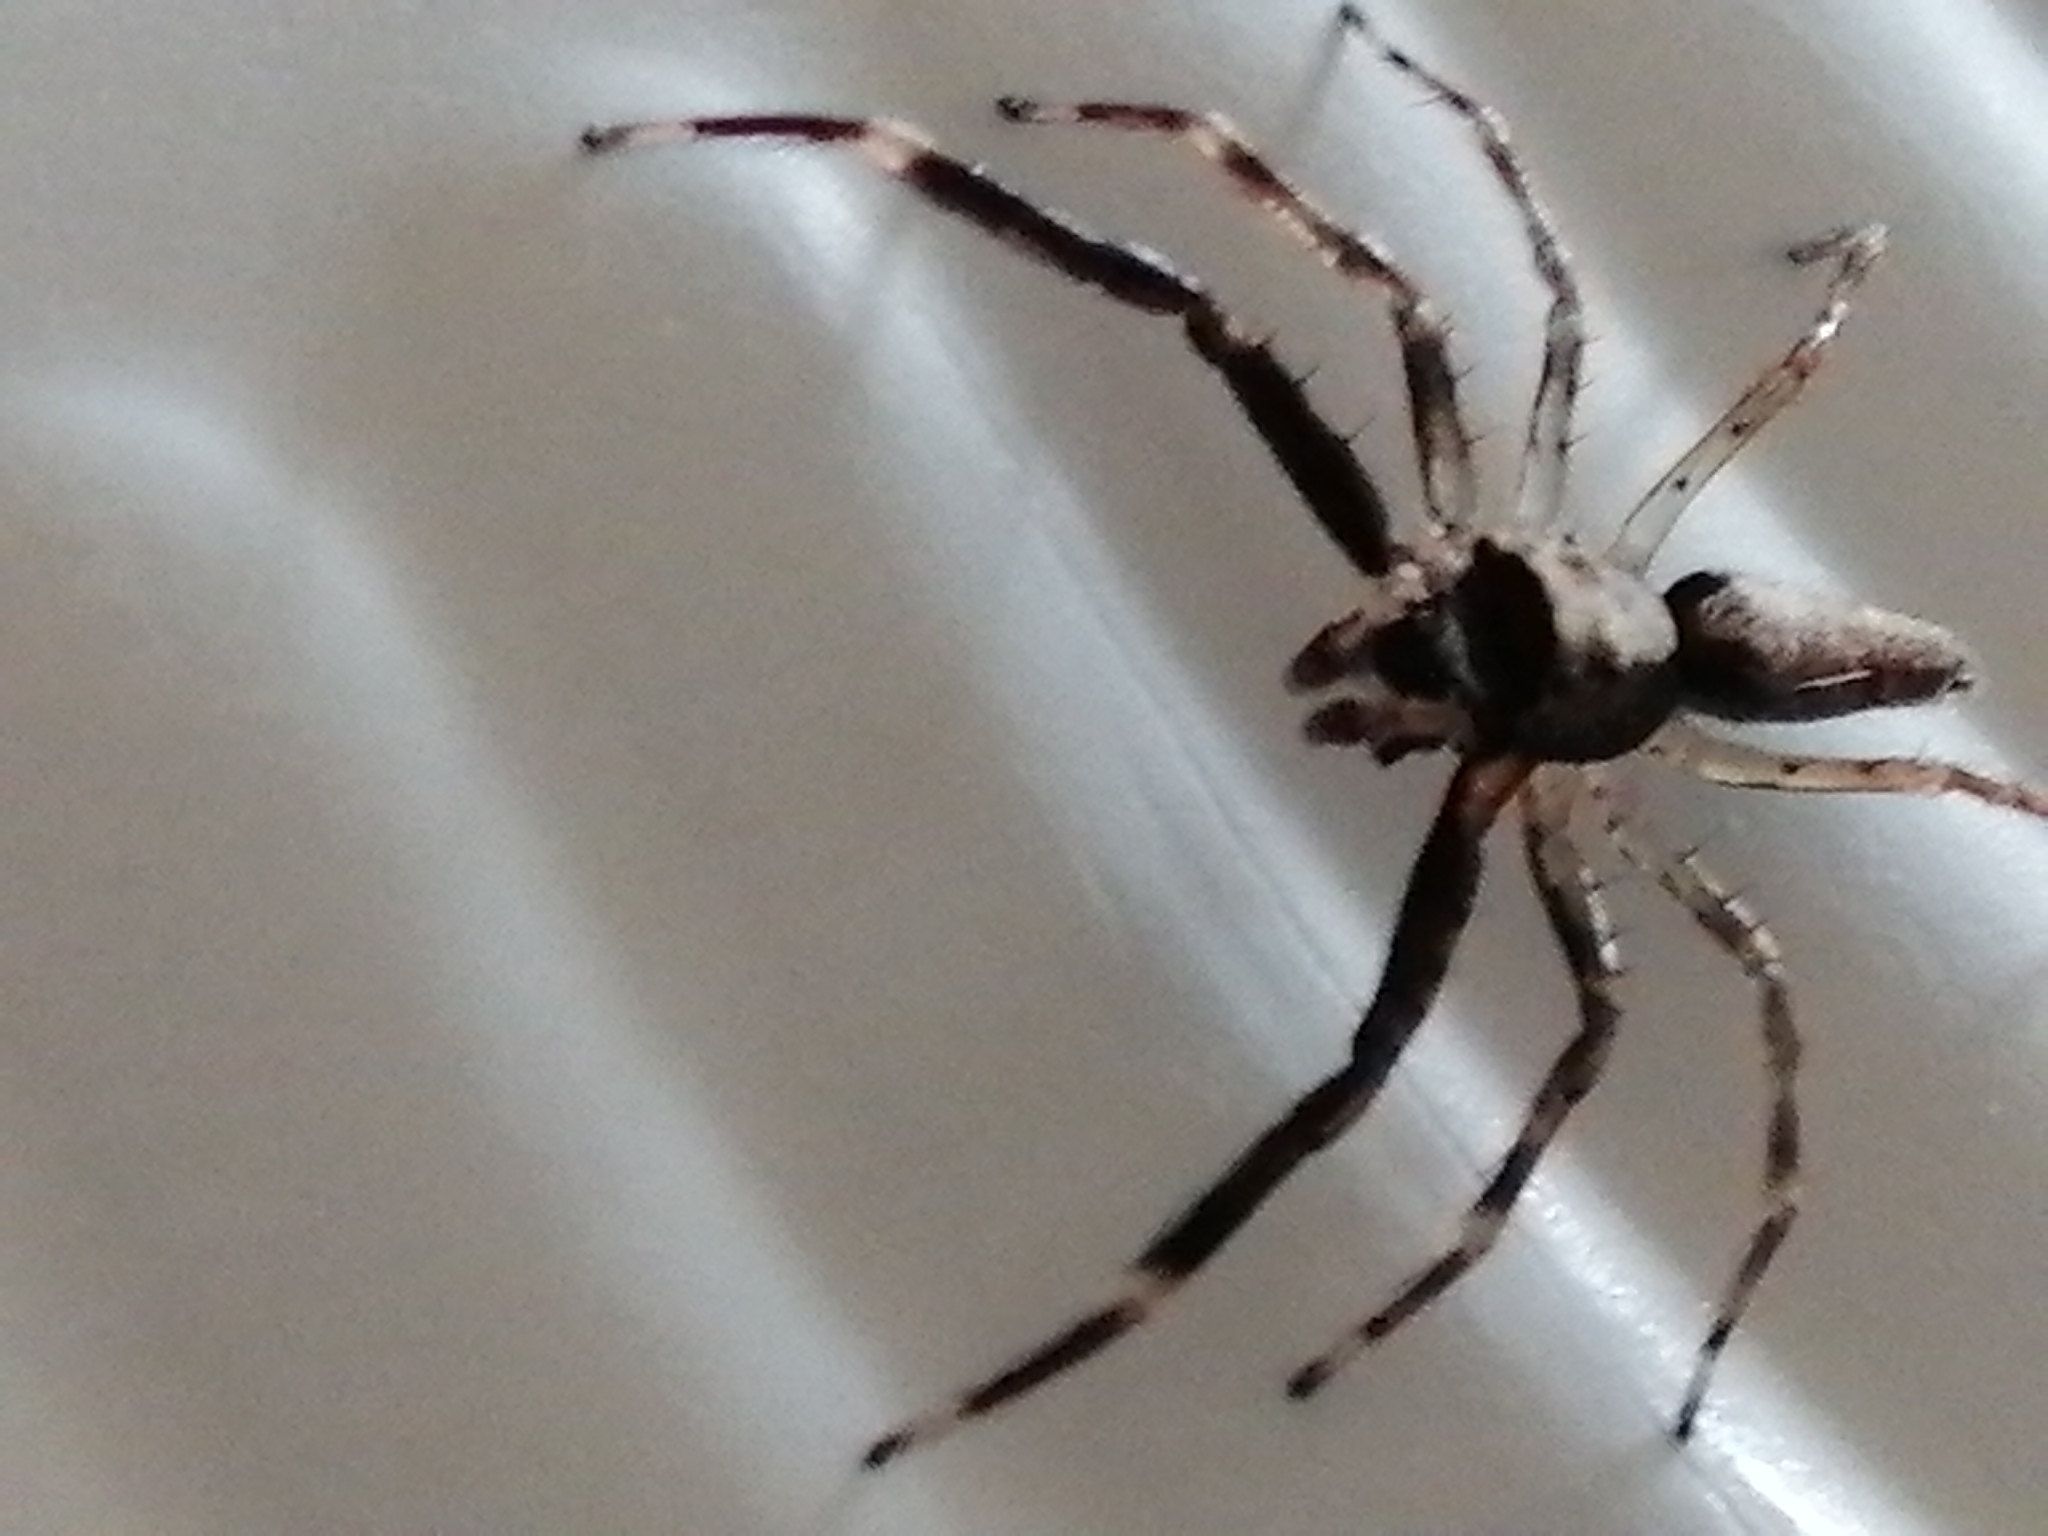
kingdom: Animalia
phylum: Arthropoda
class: Arachnida
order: Araneae
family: Salticidae
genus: Helpis
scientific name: Helpis minitabunda
